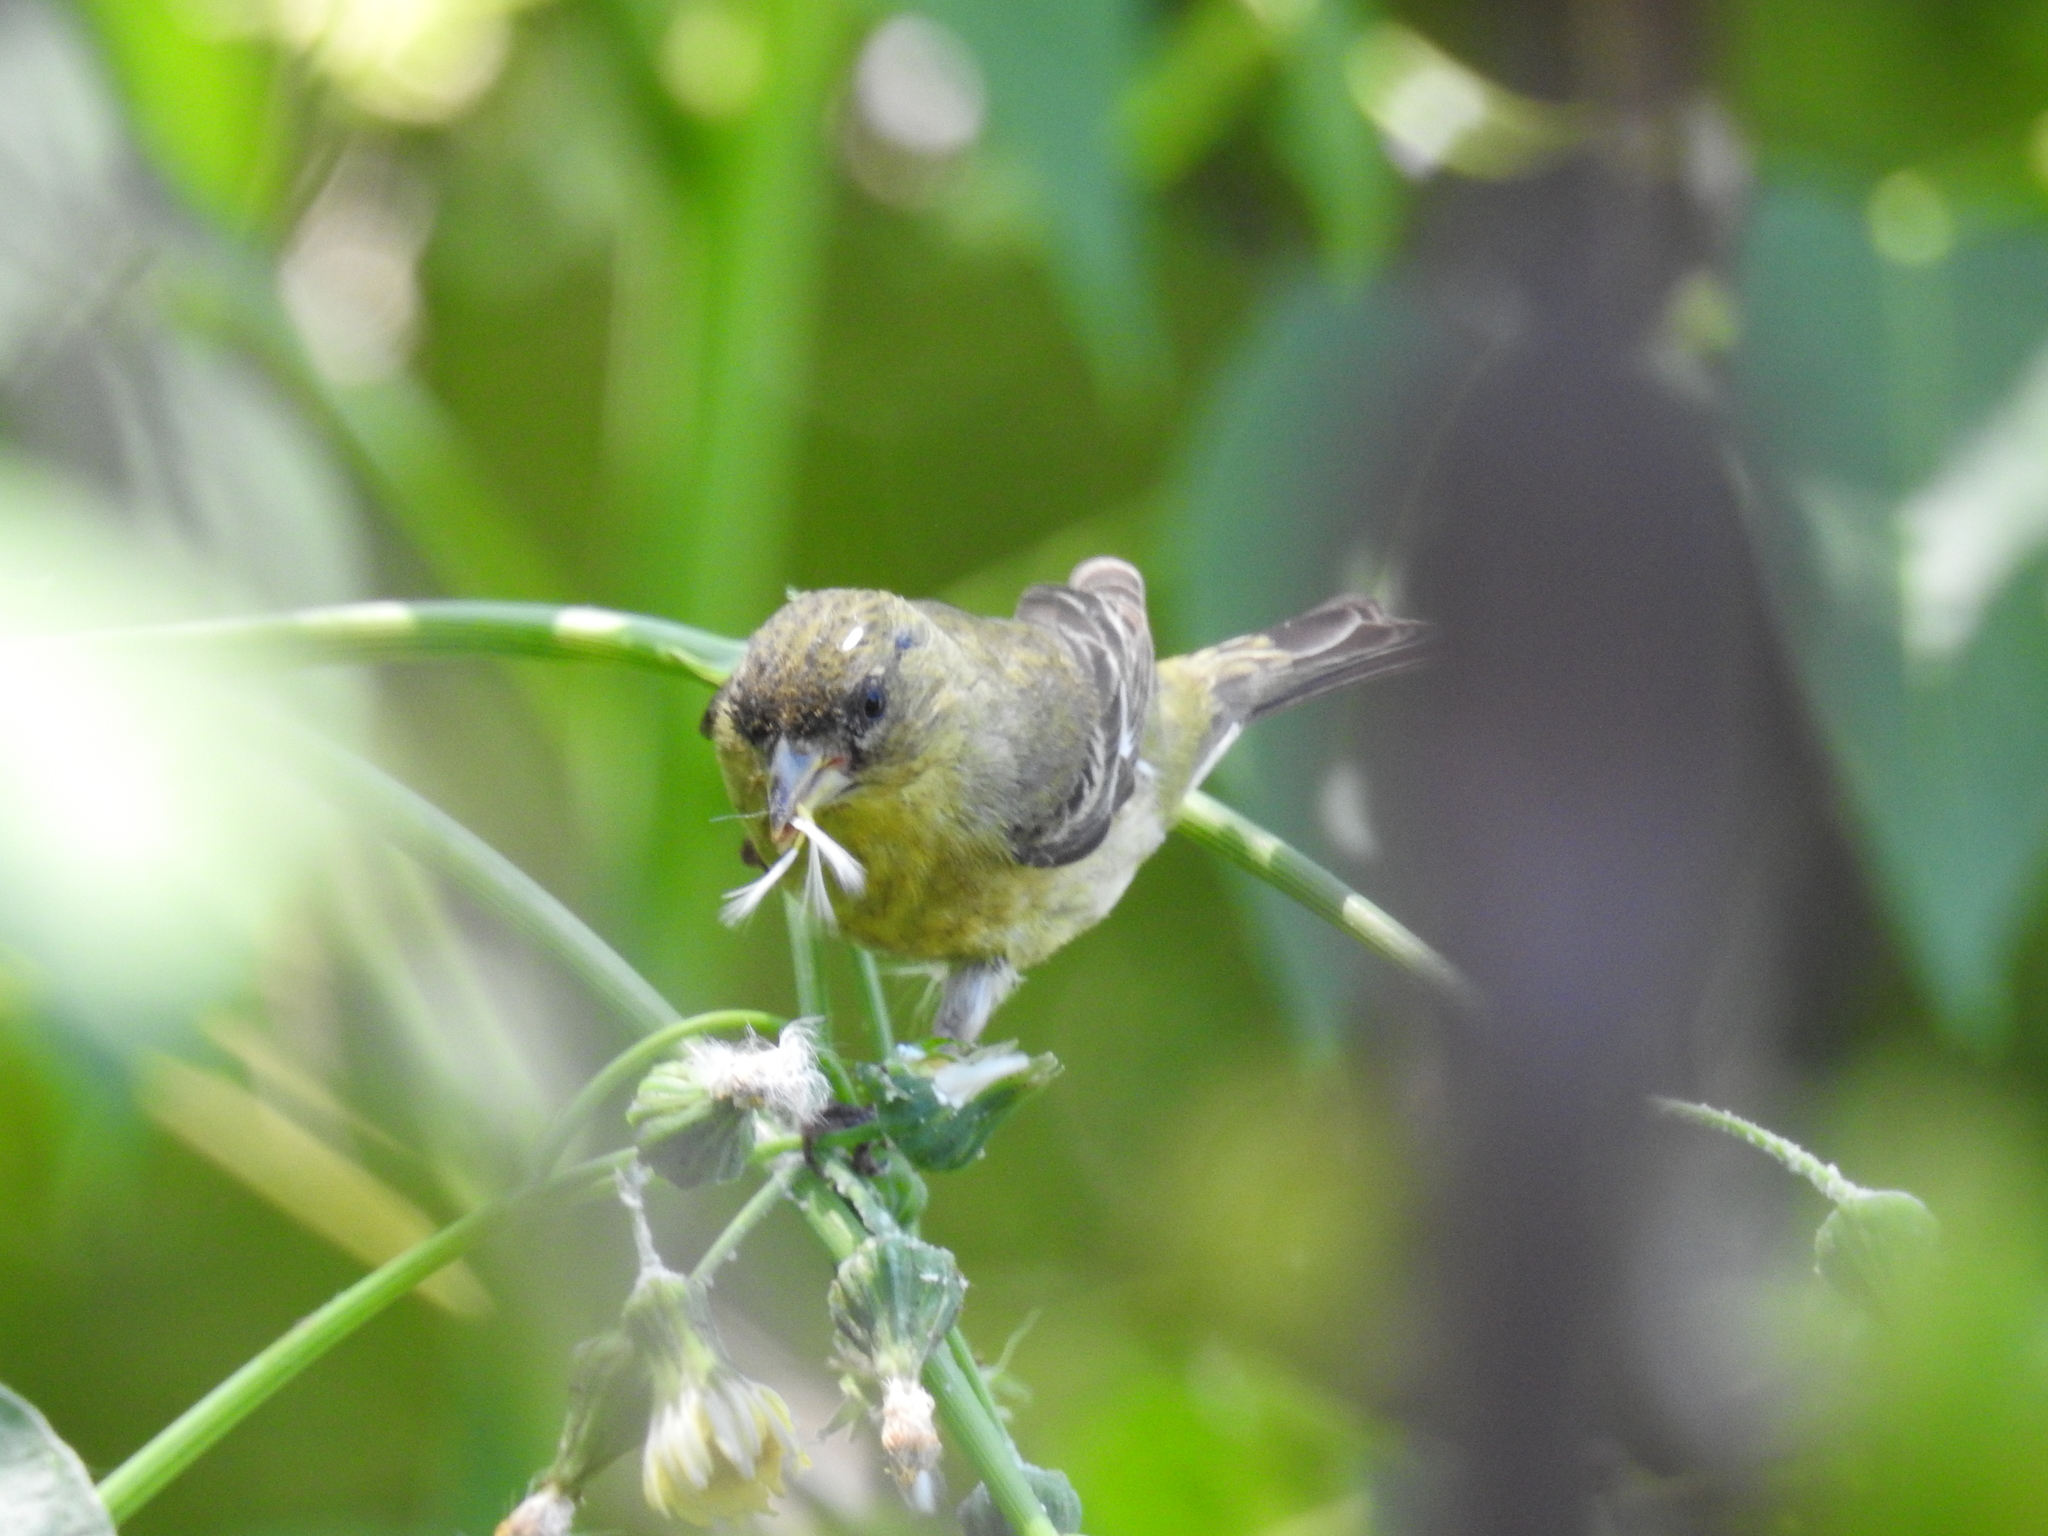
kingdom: Animalia
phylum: Chordata
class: Aves
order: Passeriformes
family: Fringillidae
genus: Spinus
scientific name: Spinus psaltria
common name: Lesser goldfinch
